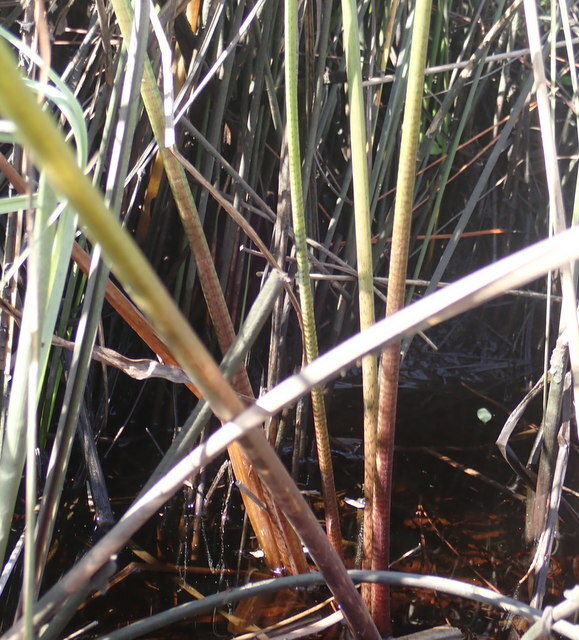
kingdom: Plantae
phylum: Tracheophyta
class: Liliopsida
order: Alismatales
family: Alismataceae
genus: Sagittaria
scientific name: Sagittaria lancifolia
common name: Lance-leaf arrowhead
